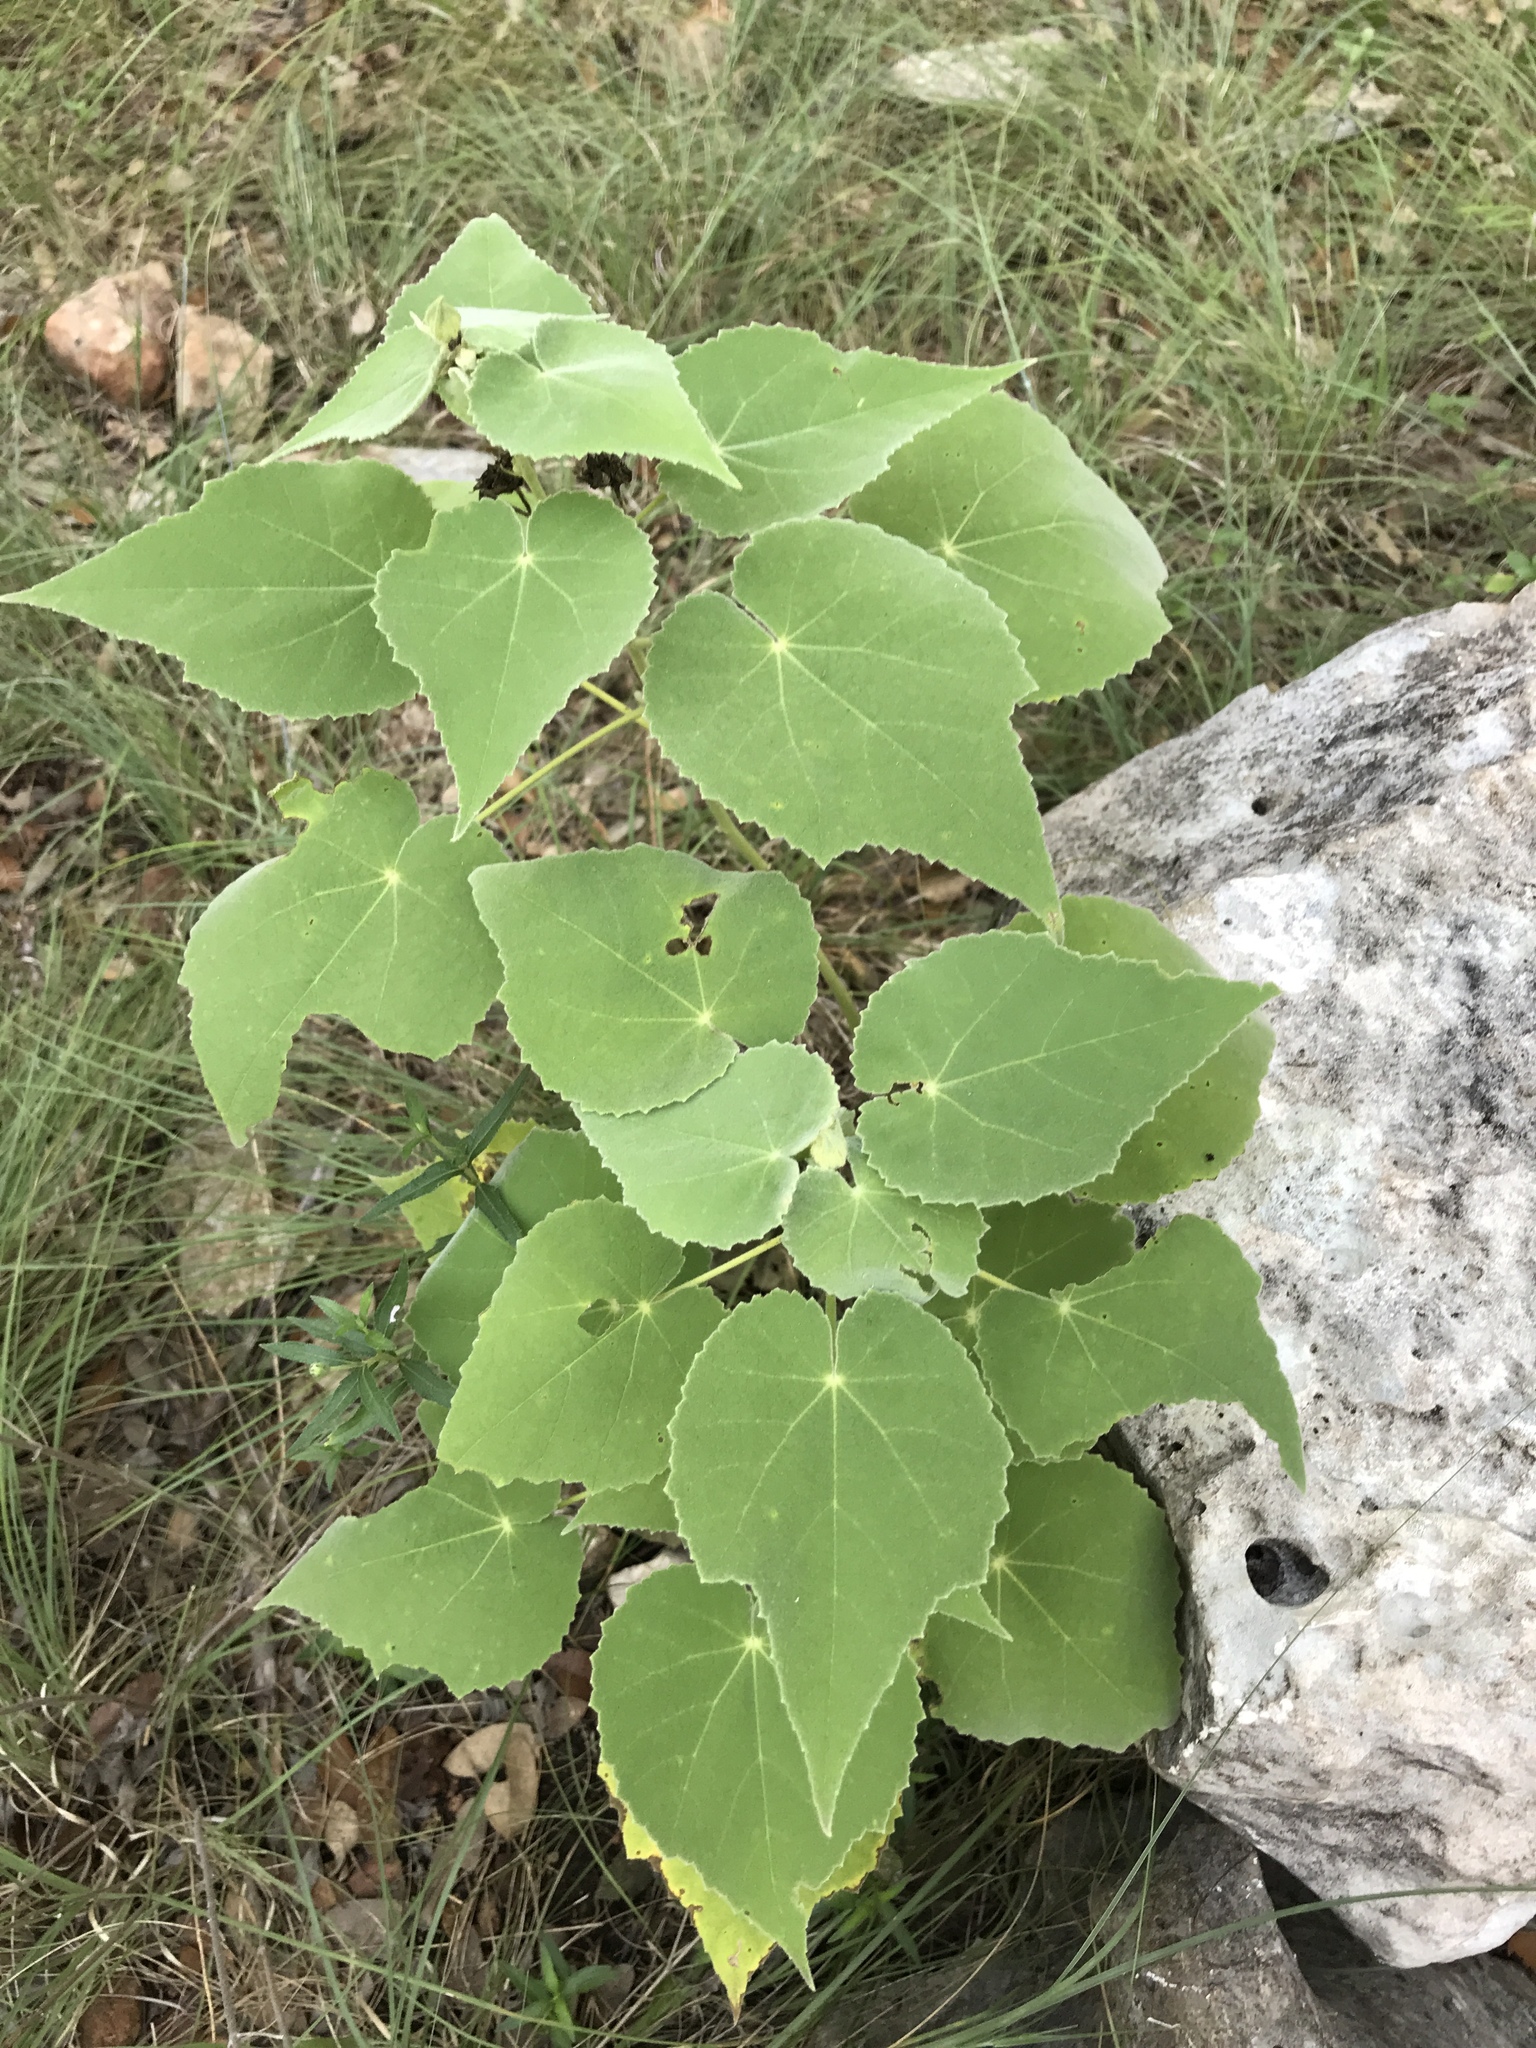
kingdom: Plantae
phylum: Tracheophyta
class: Magnoliopsida
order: Malvales
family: Malvaceae
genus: Allowissadula
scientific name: Allowissadula holosericea
